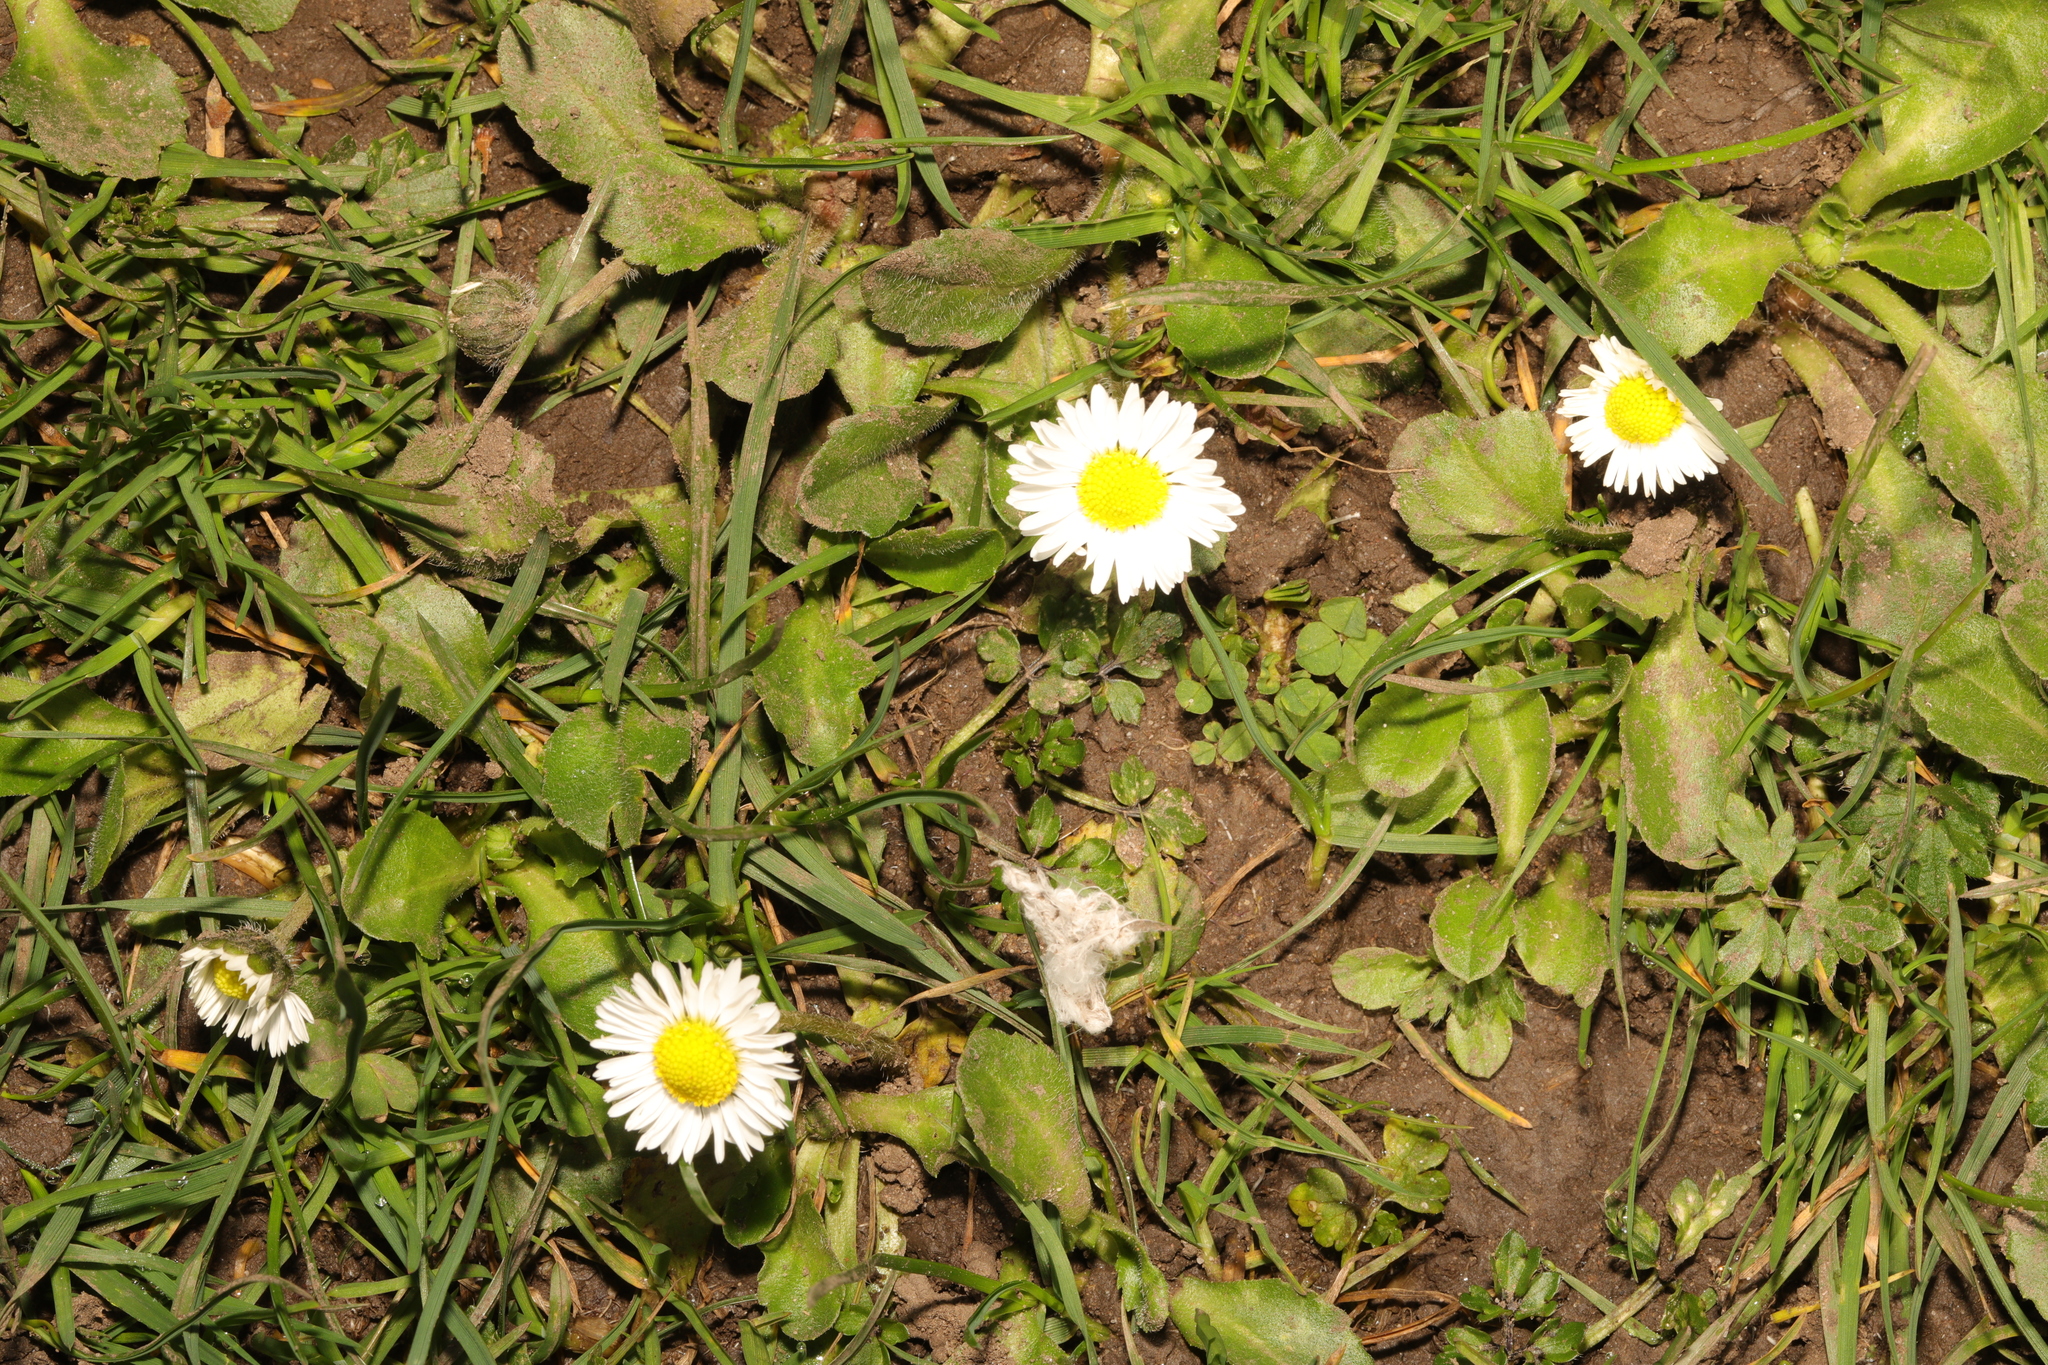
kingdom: Plantae
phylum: Tracheophyta
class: Magnoliopsida
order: Asterales
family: Asteraceae
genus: Bellis
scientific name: Bellis perennis
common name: Lawndaisy
